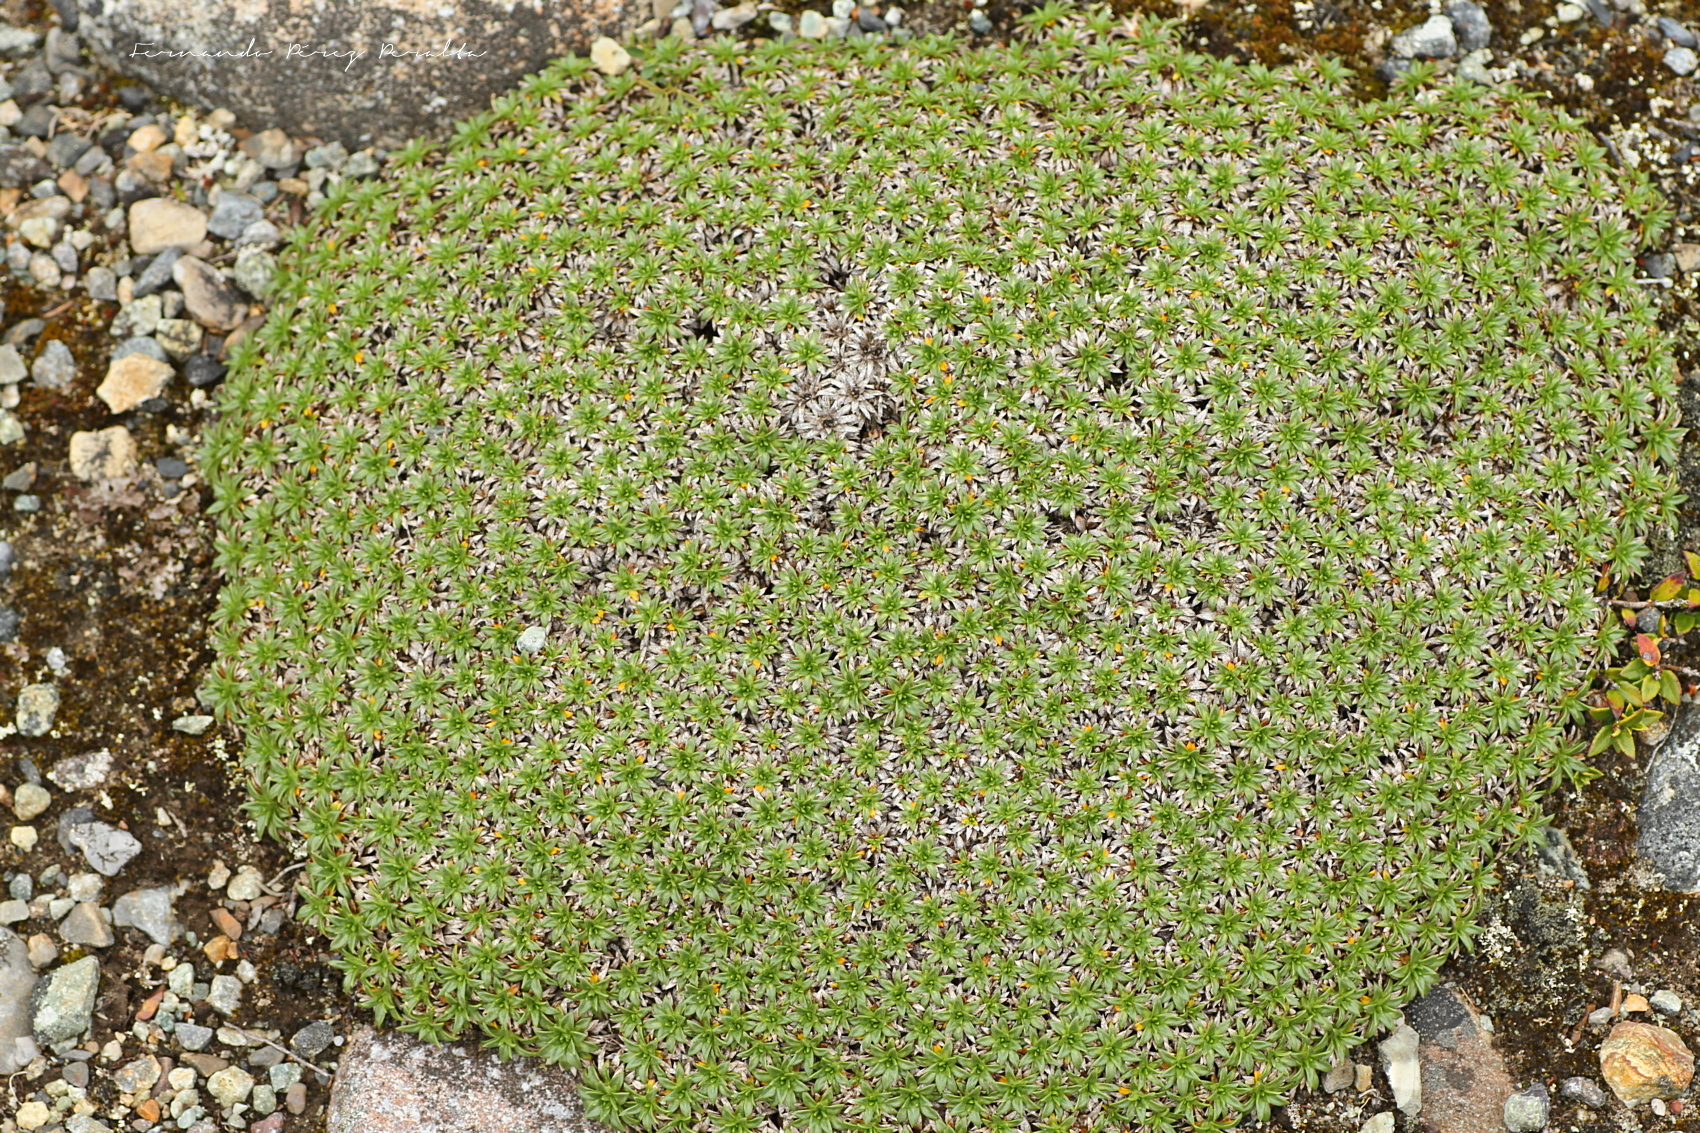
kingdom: Plantae
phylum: Tracheophyta
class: Magnoliopsida
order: Apiales
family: Apiaceae
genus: Azorella
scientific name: Azorella monantha
